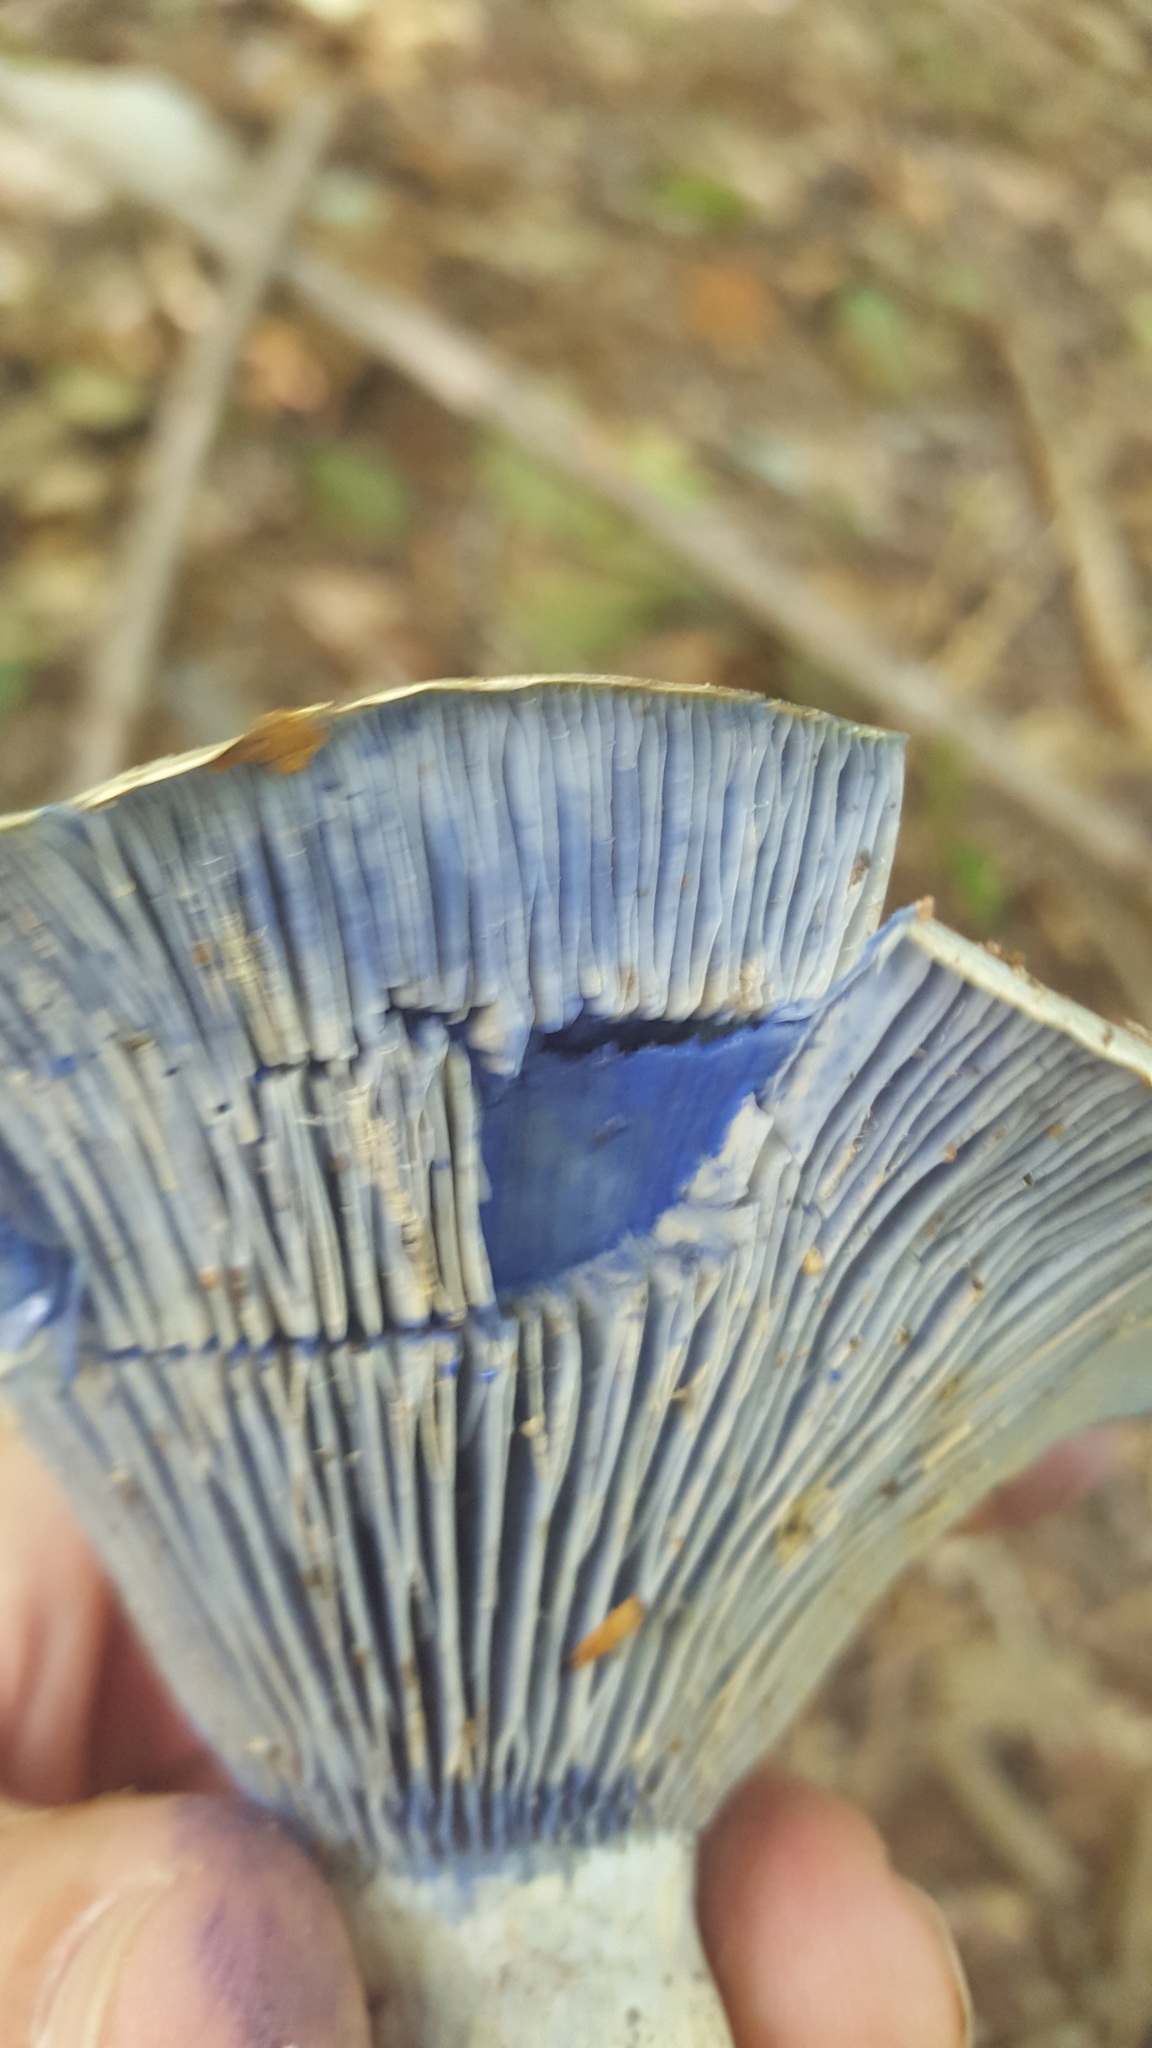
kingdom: Fungi
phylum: Basidiomycota
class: Agaricomycetes
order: Russulales
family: Russulaceae
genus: Lactarius
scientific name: Lactarius indigo
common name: Indigo milk cap
